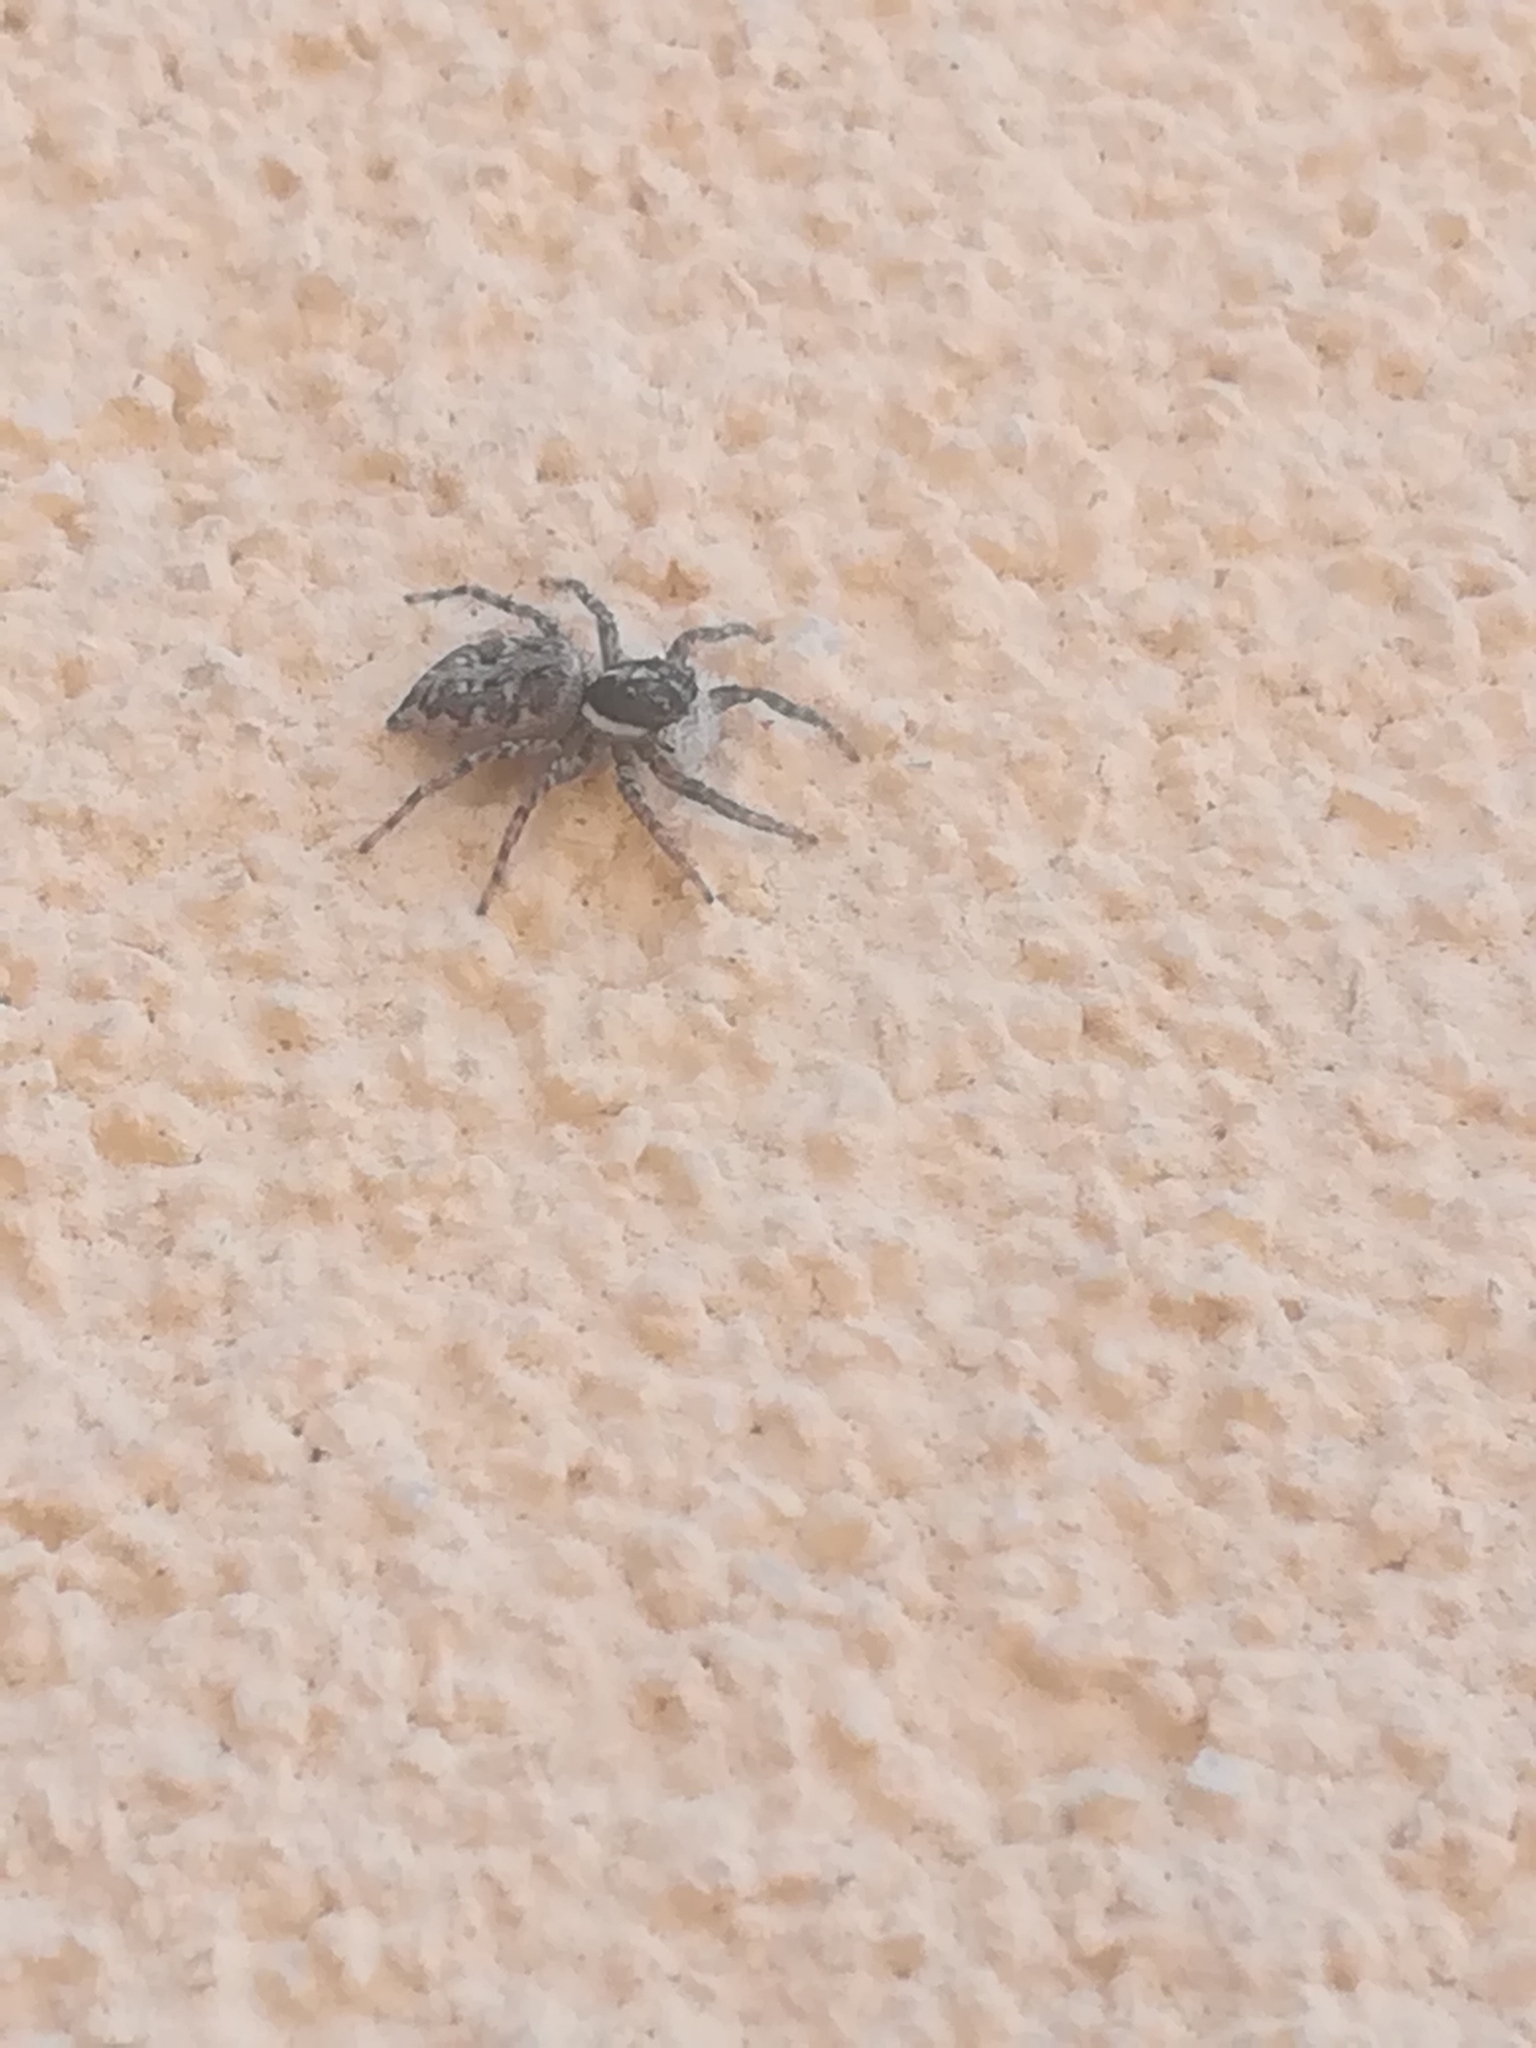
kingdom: Animalia
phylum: Arthropoda
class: Arachnida
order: Araneae
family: Salticidae
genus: Menemerus
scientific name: Menemerus semilimbatus
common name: Jumping spider
